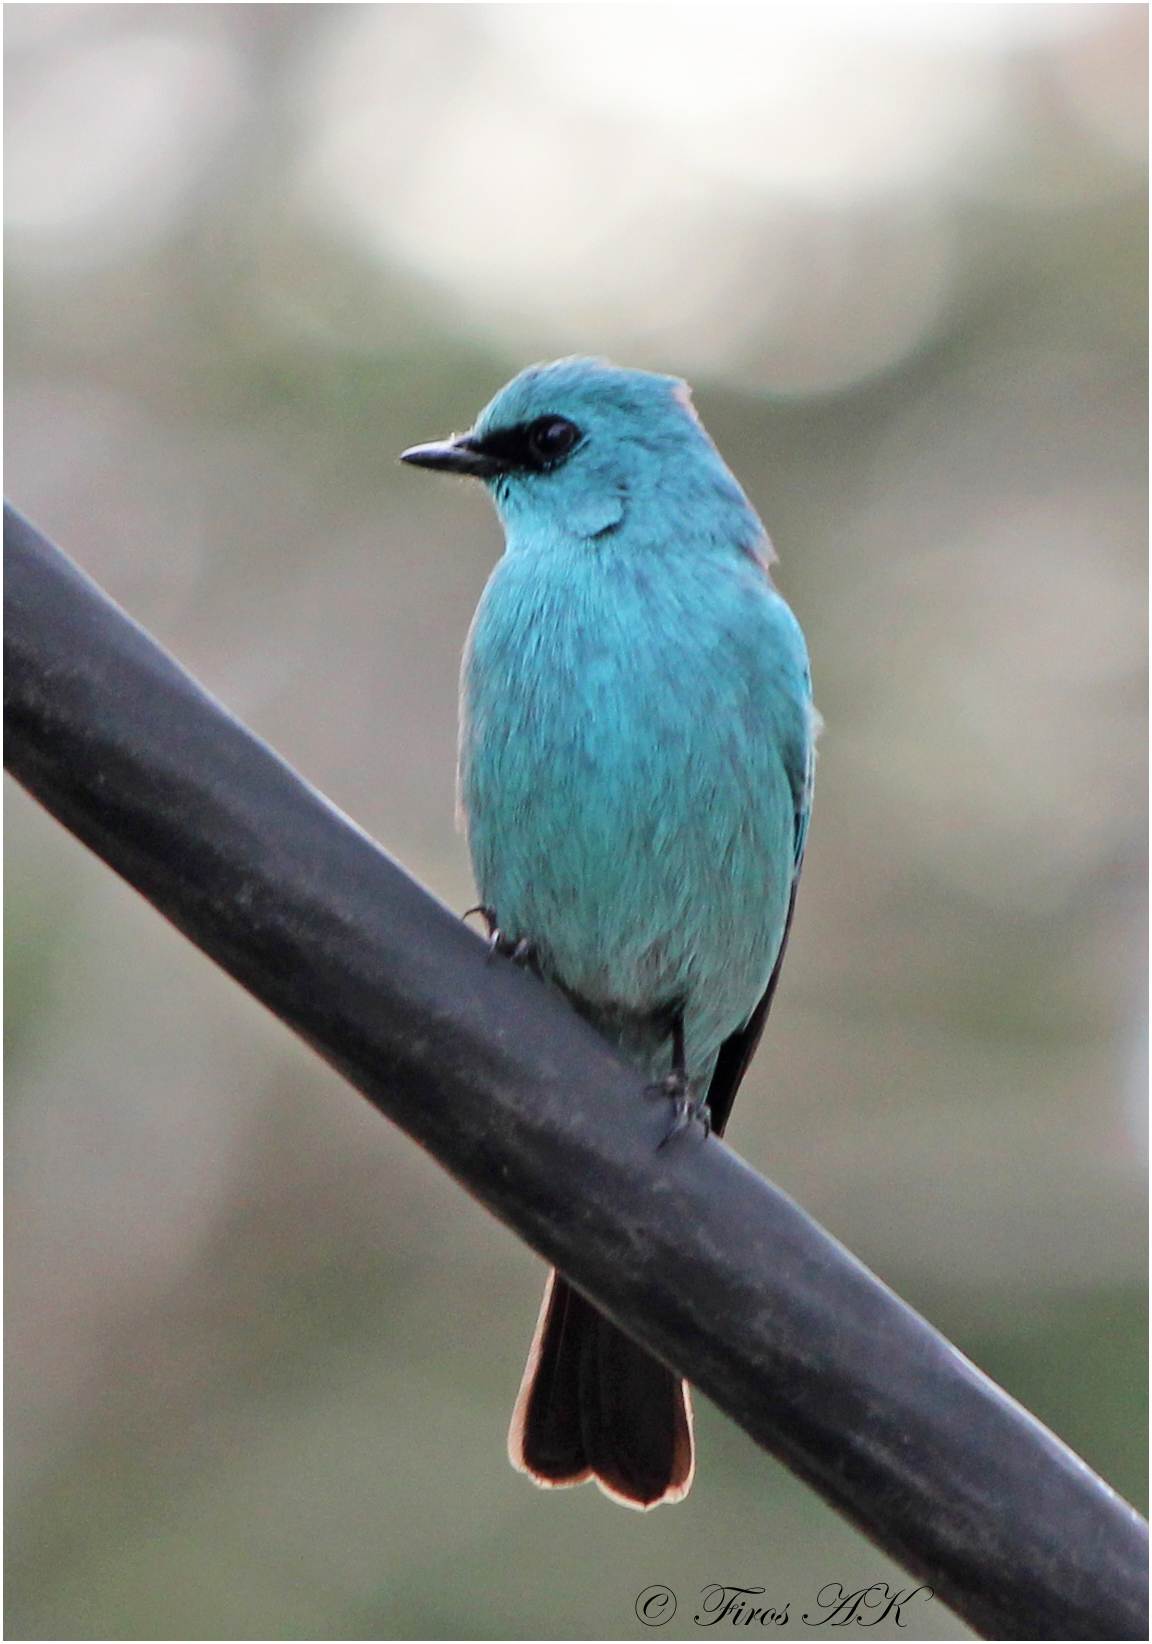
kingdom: Animalia
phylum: Chordata
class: Aves
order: Passeriformes
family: Muscicapidae
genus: Eumyias
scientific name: Eumyias thalassinus
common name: Verditer flycatcher
